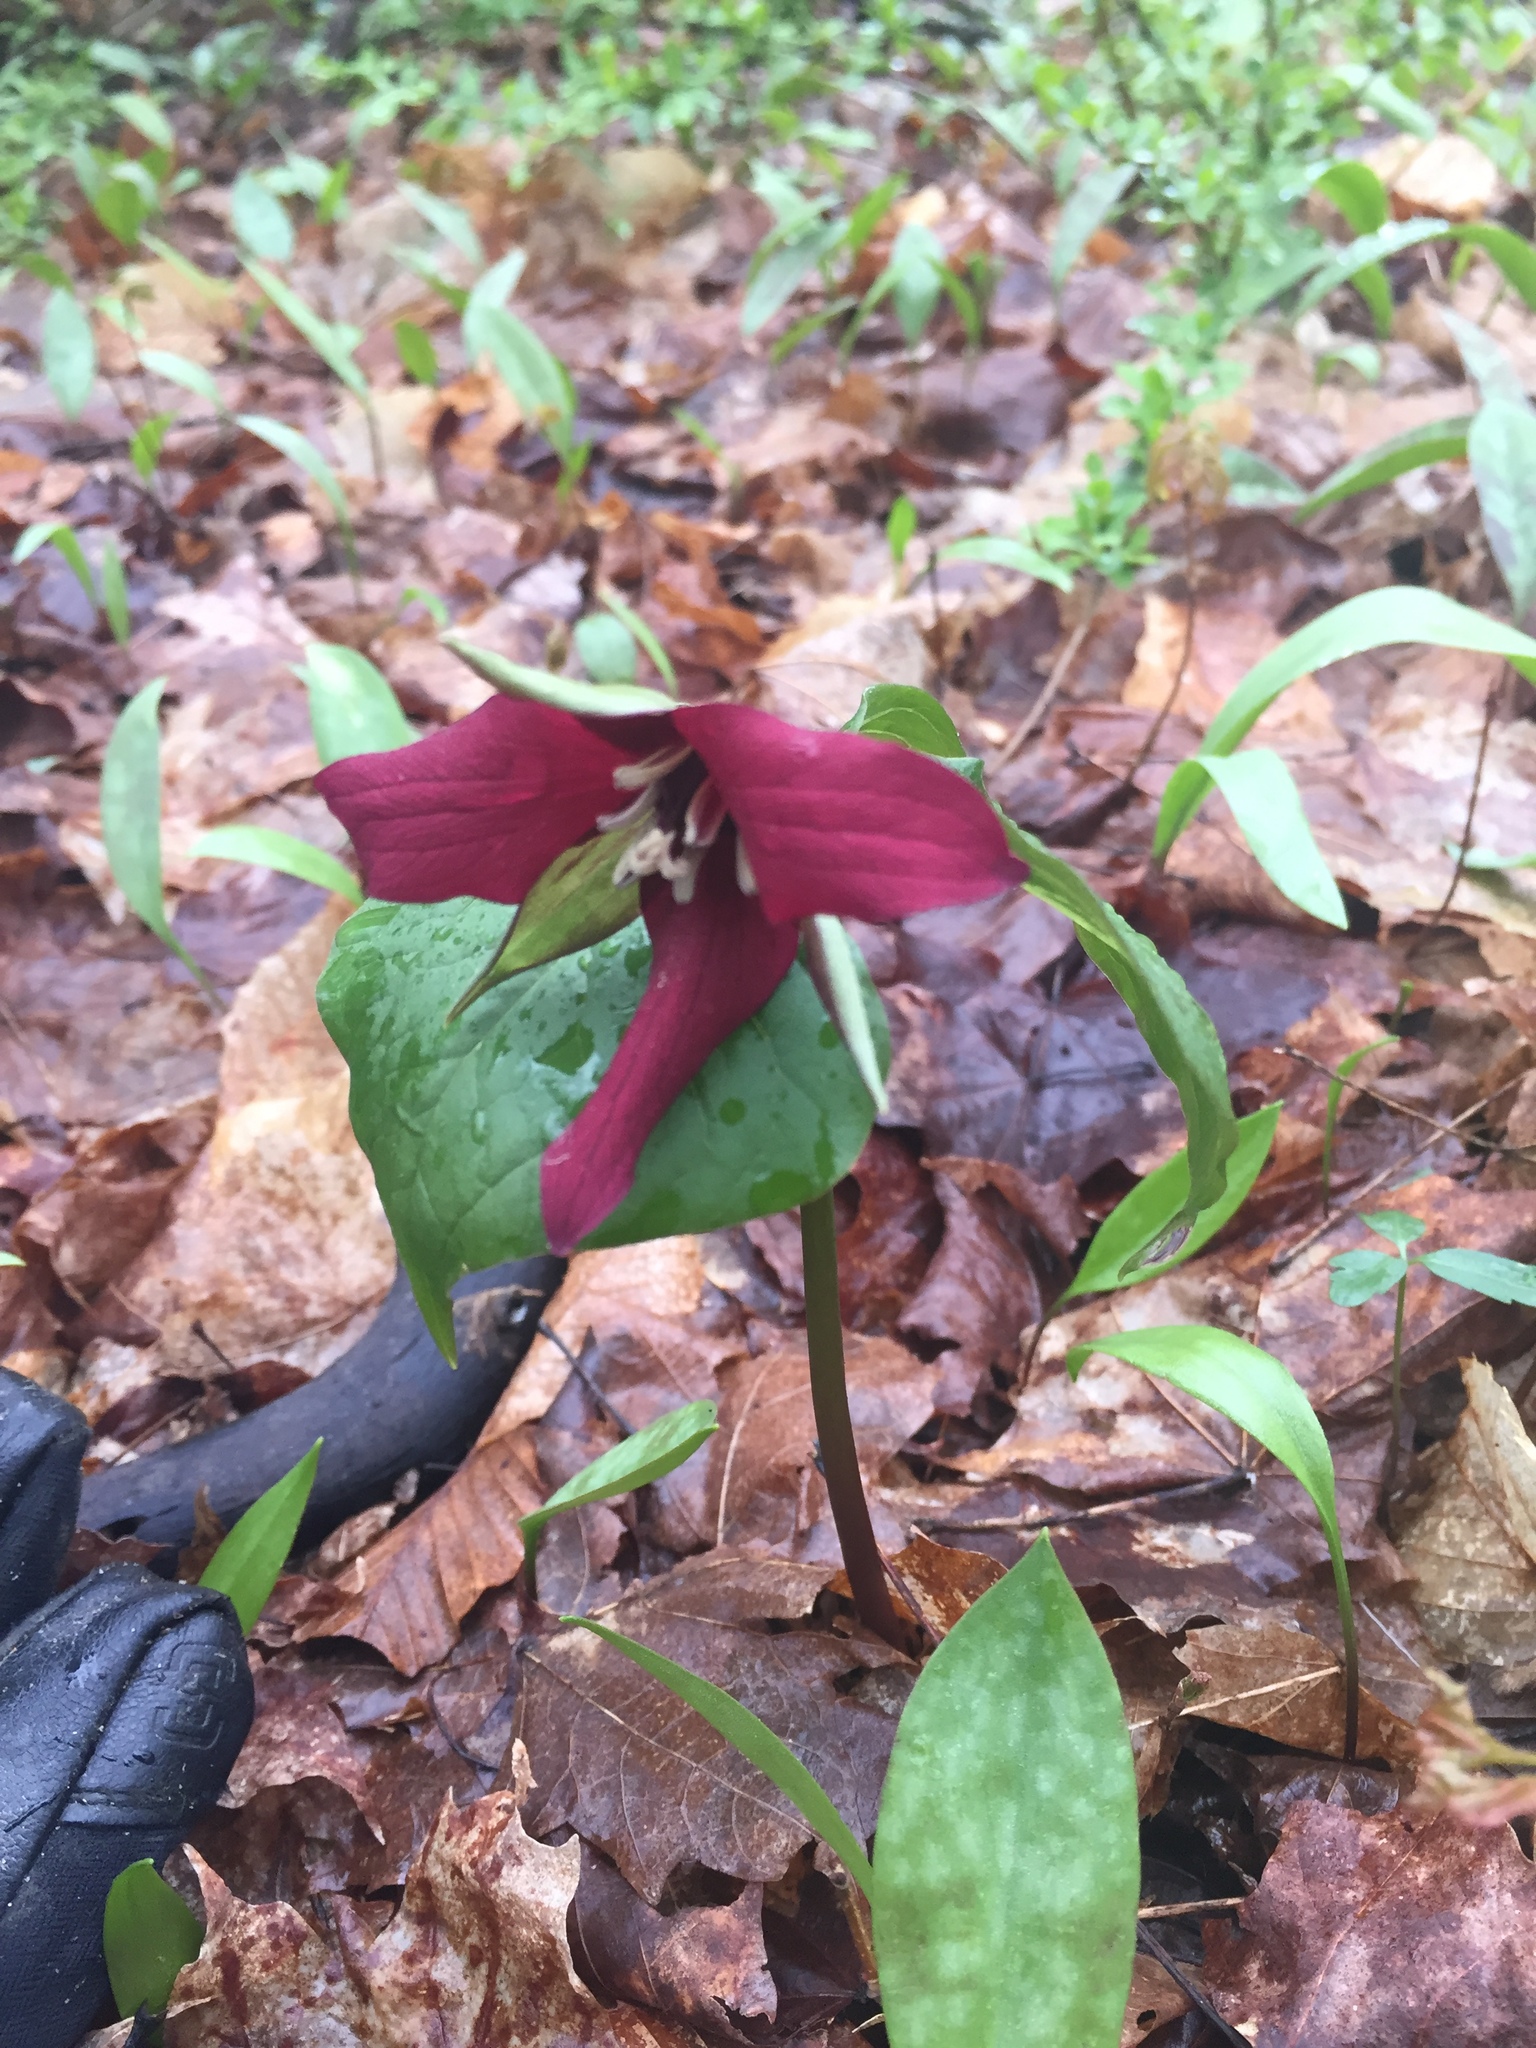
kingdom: Plantae
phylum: Tracheophyta
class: Liliopsida
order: Liliales
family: Melanthiaceae
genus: Trillium
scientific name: Trillium erectum
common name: Purple trillium
